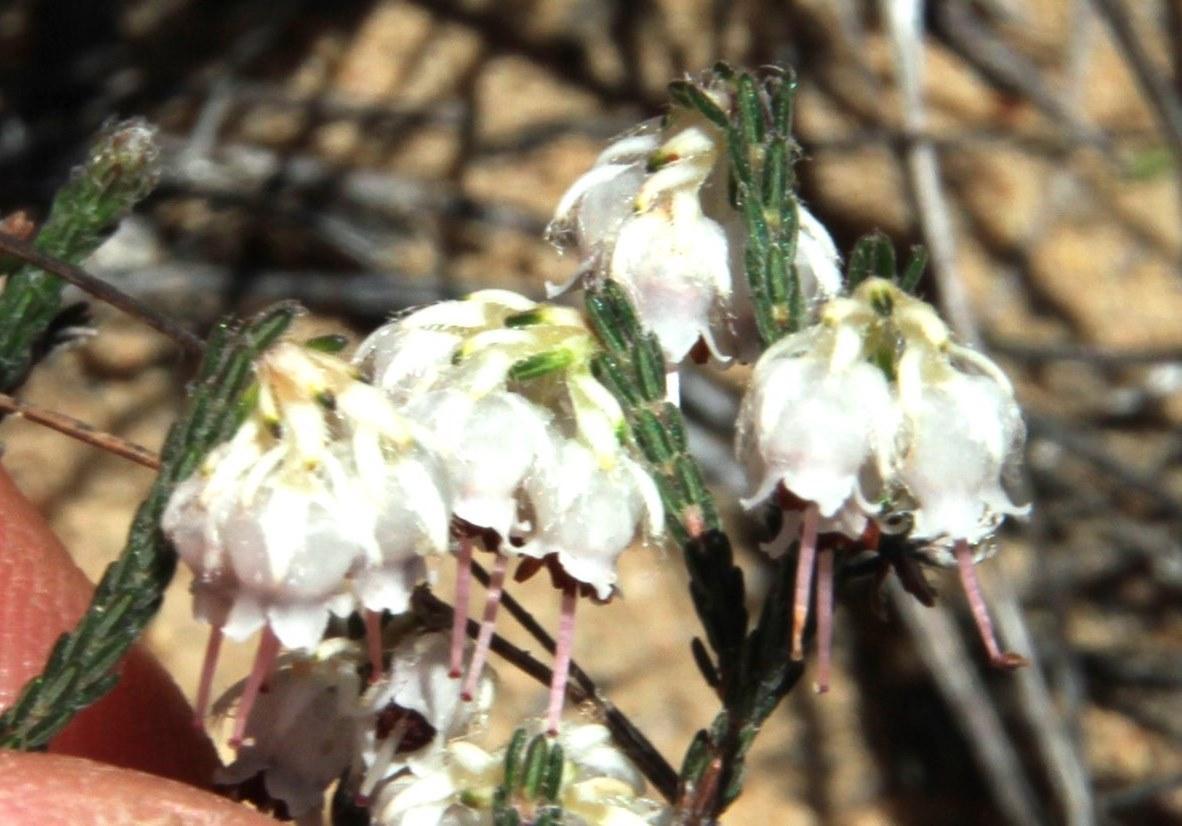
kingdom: Plantae
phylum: Tracheophyta
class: Magnoliopsida
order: Ericales
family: Ericaceae
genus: Erica
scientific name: Erica senilis
